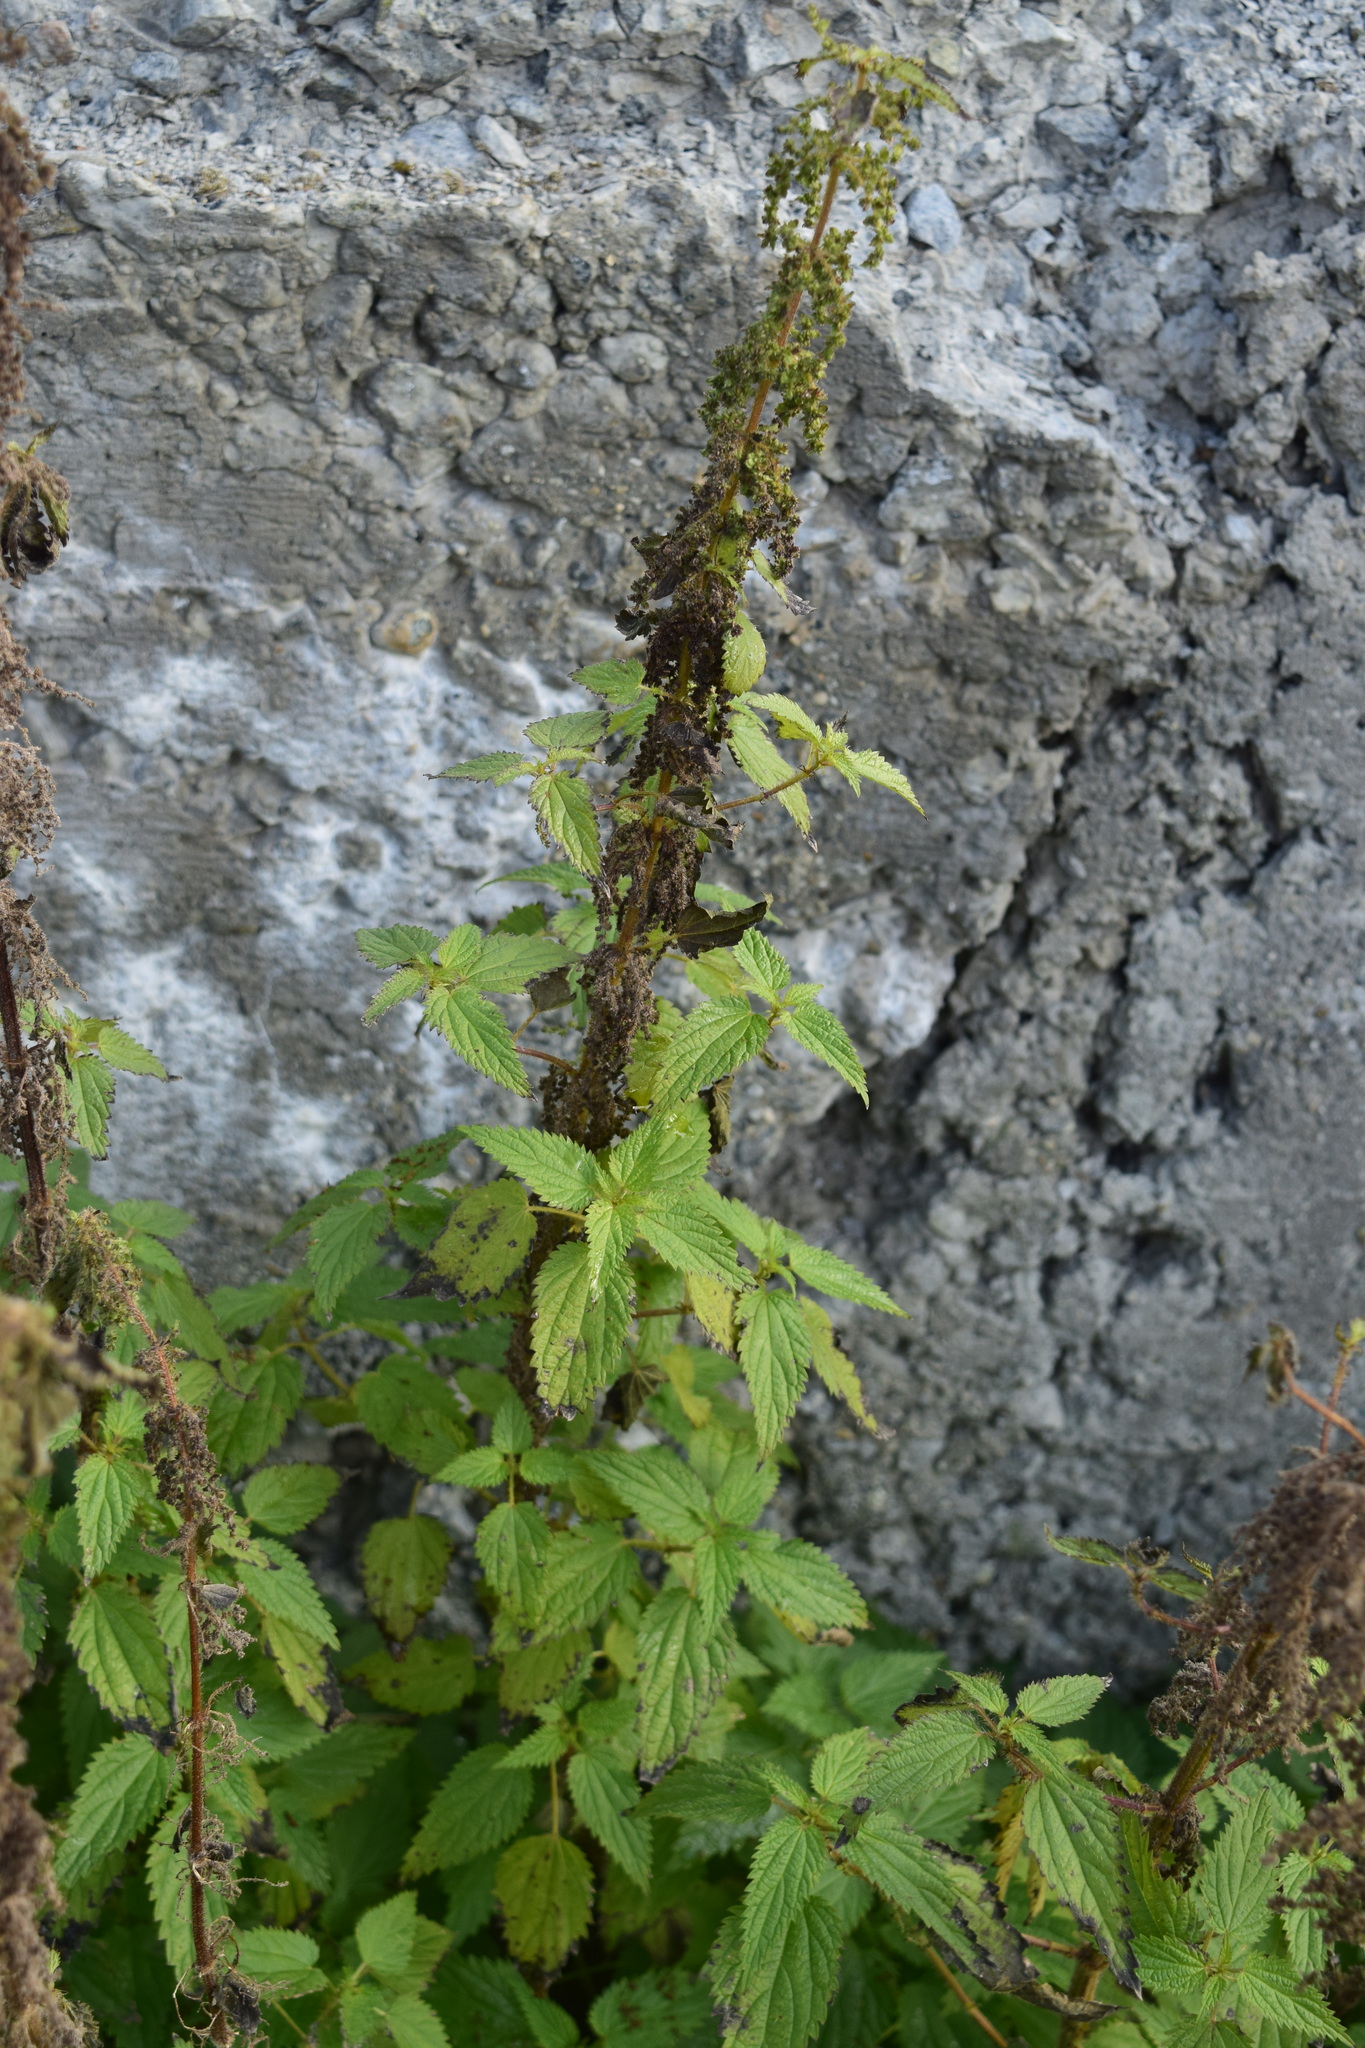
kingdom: Plantae
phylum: Tracheophyta
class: Magnoliopsida
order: Rosales
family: Urticaceae
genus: Urtica
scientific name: Urtica dioica
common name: Common nettle
